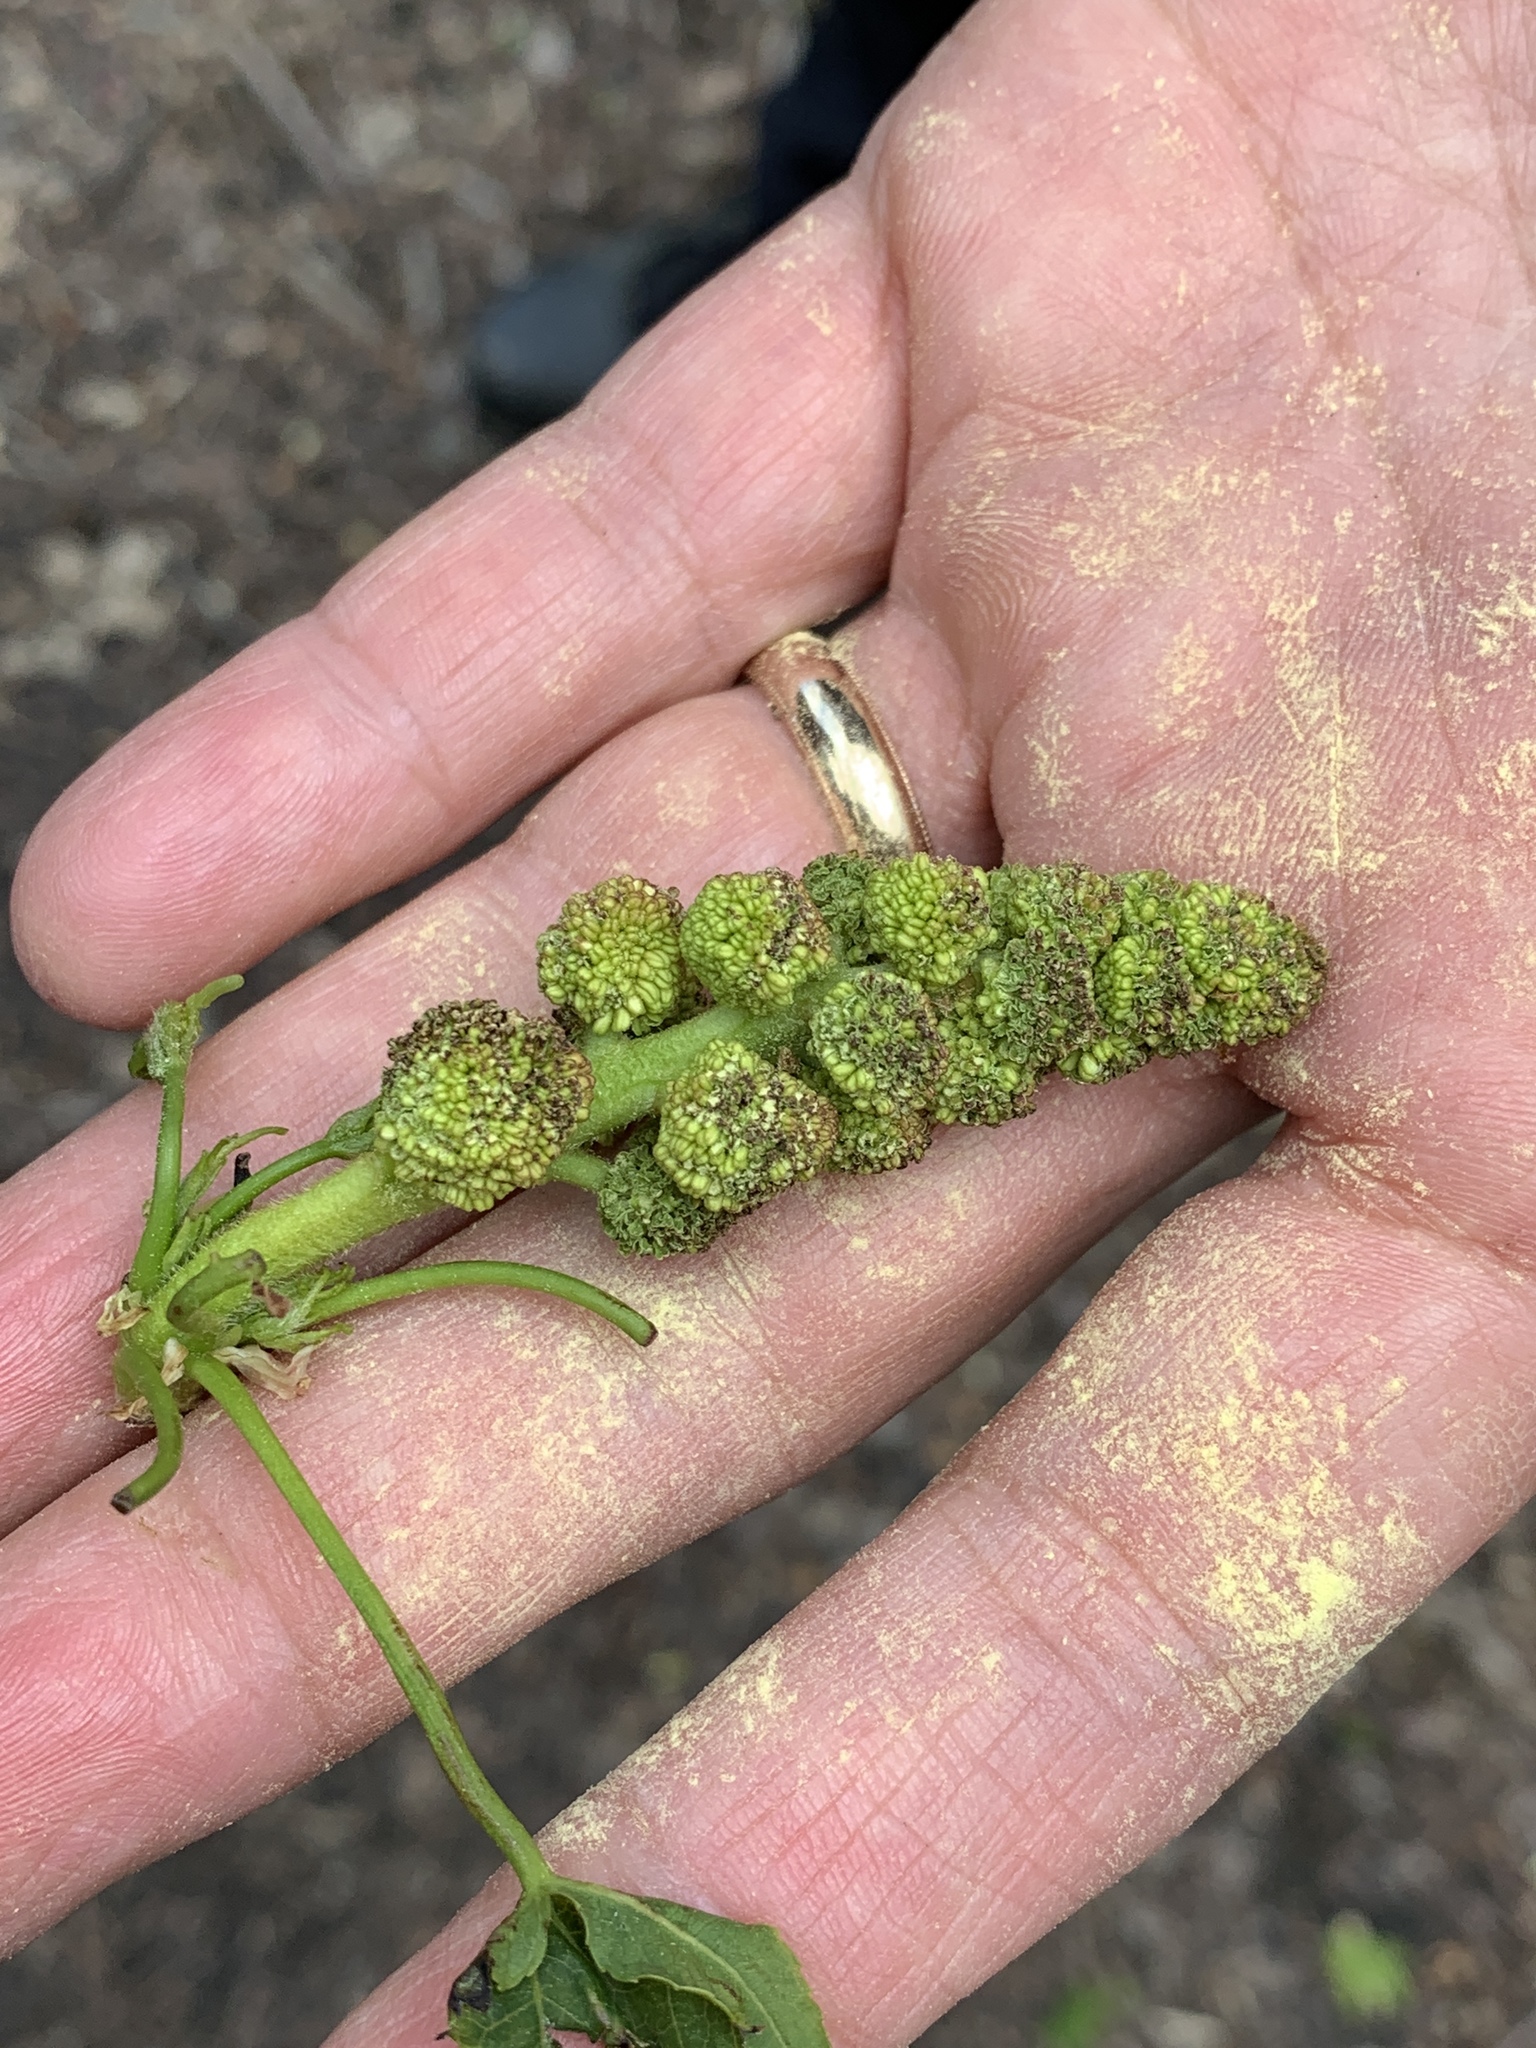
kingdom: Plantae
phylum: Tracheophyta
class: Magnoliopsida
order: Saxifragales
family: Altingiaceae
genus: Liquidambar
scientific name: Liquidambar styraciflua
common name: Sweet gum
